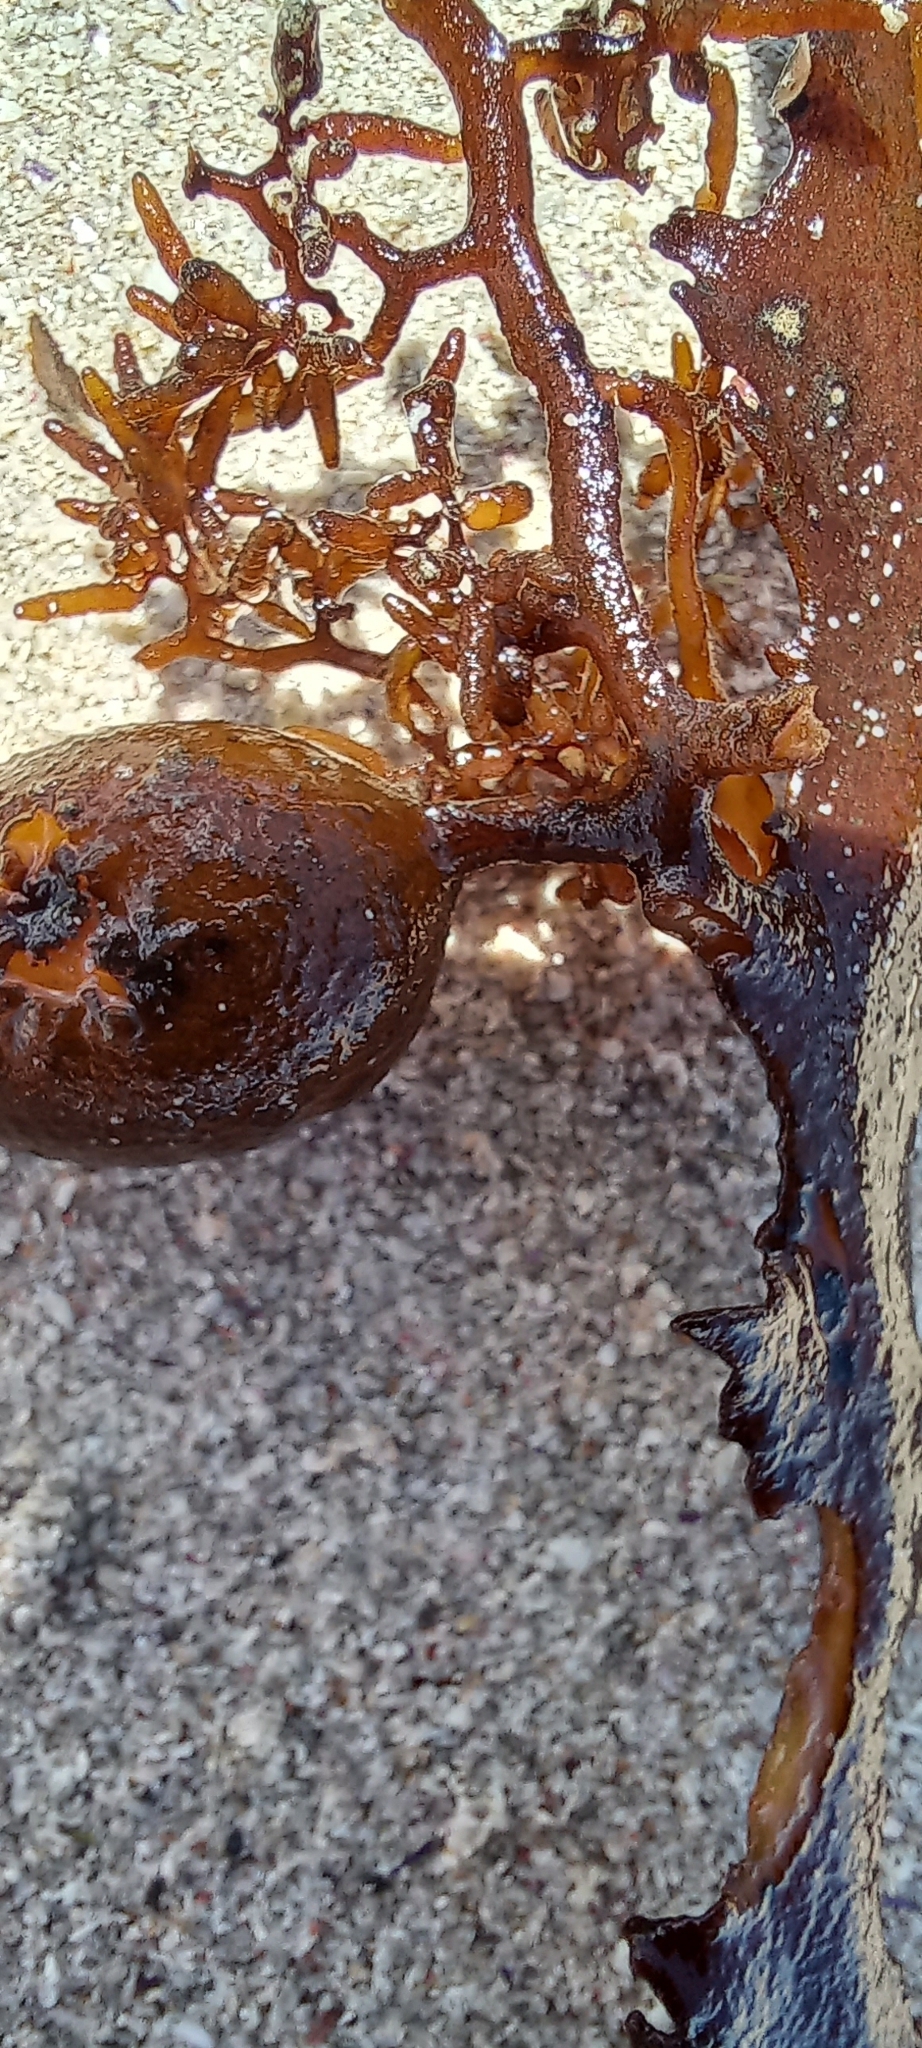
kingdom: Chromista
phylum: Ochrophyta
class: Phaeophyceae
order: Fucales
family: Sargassaceae
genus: Anthophycus
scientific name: Anthophycus
